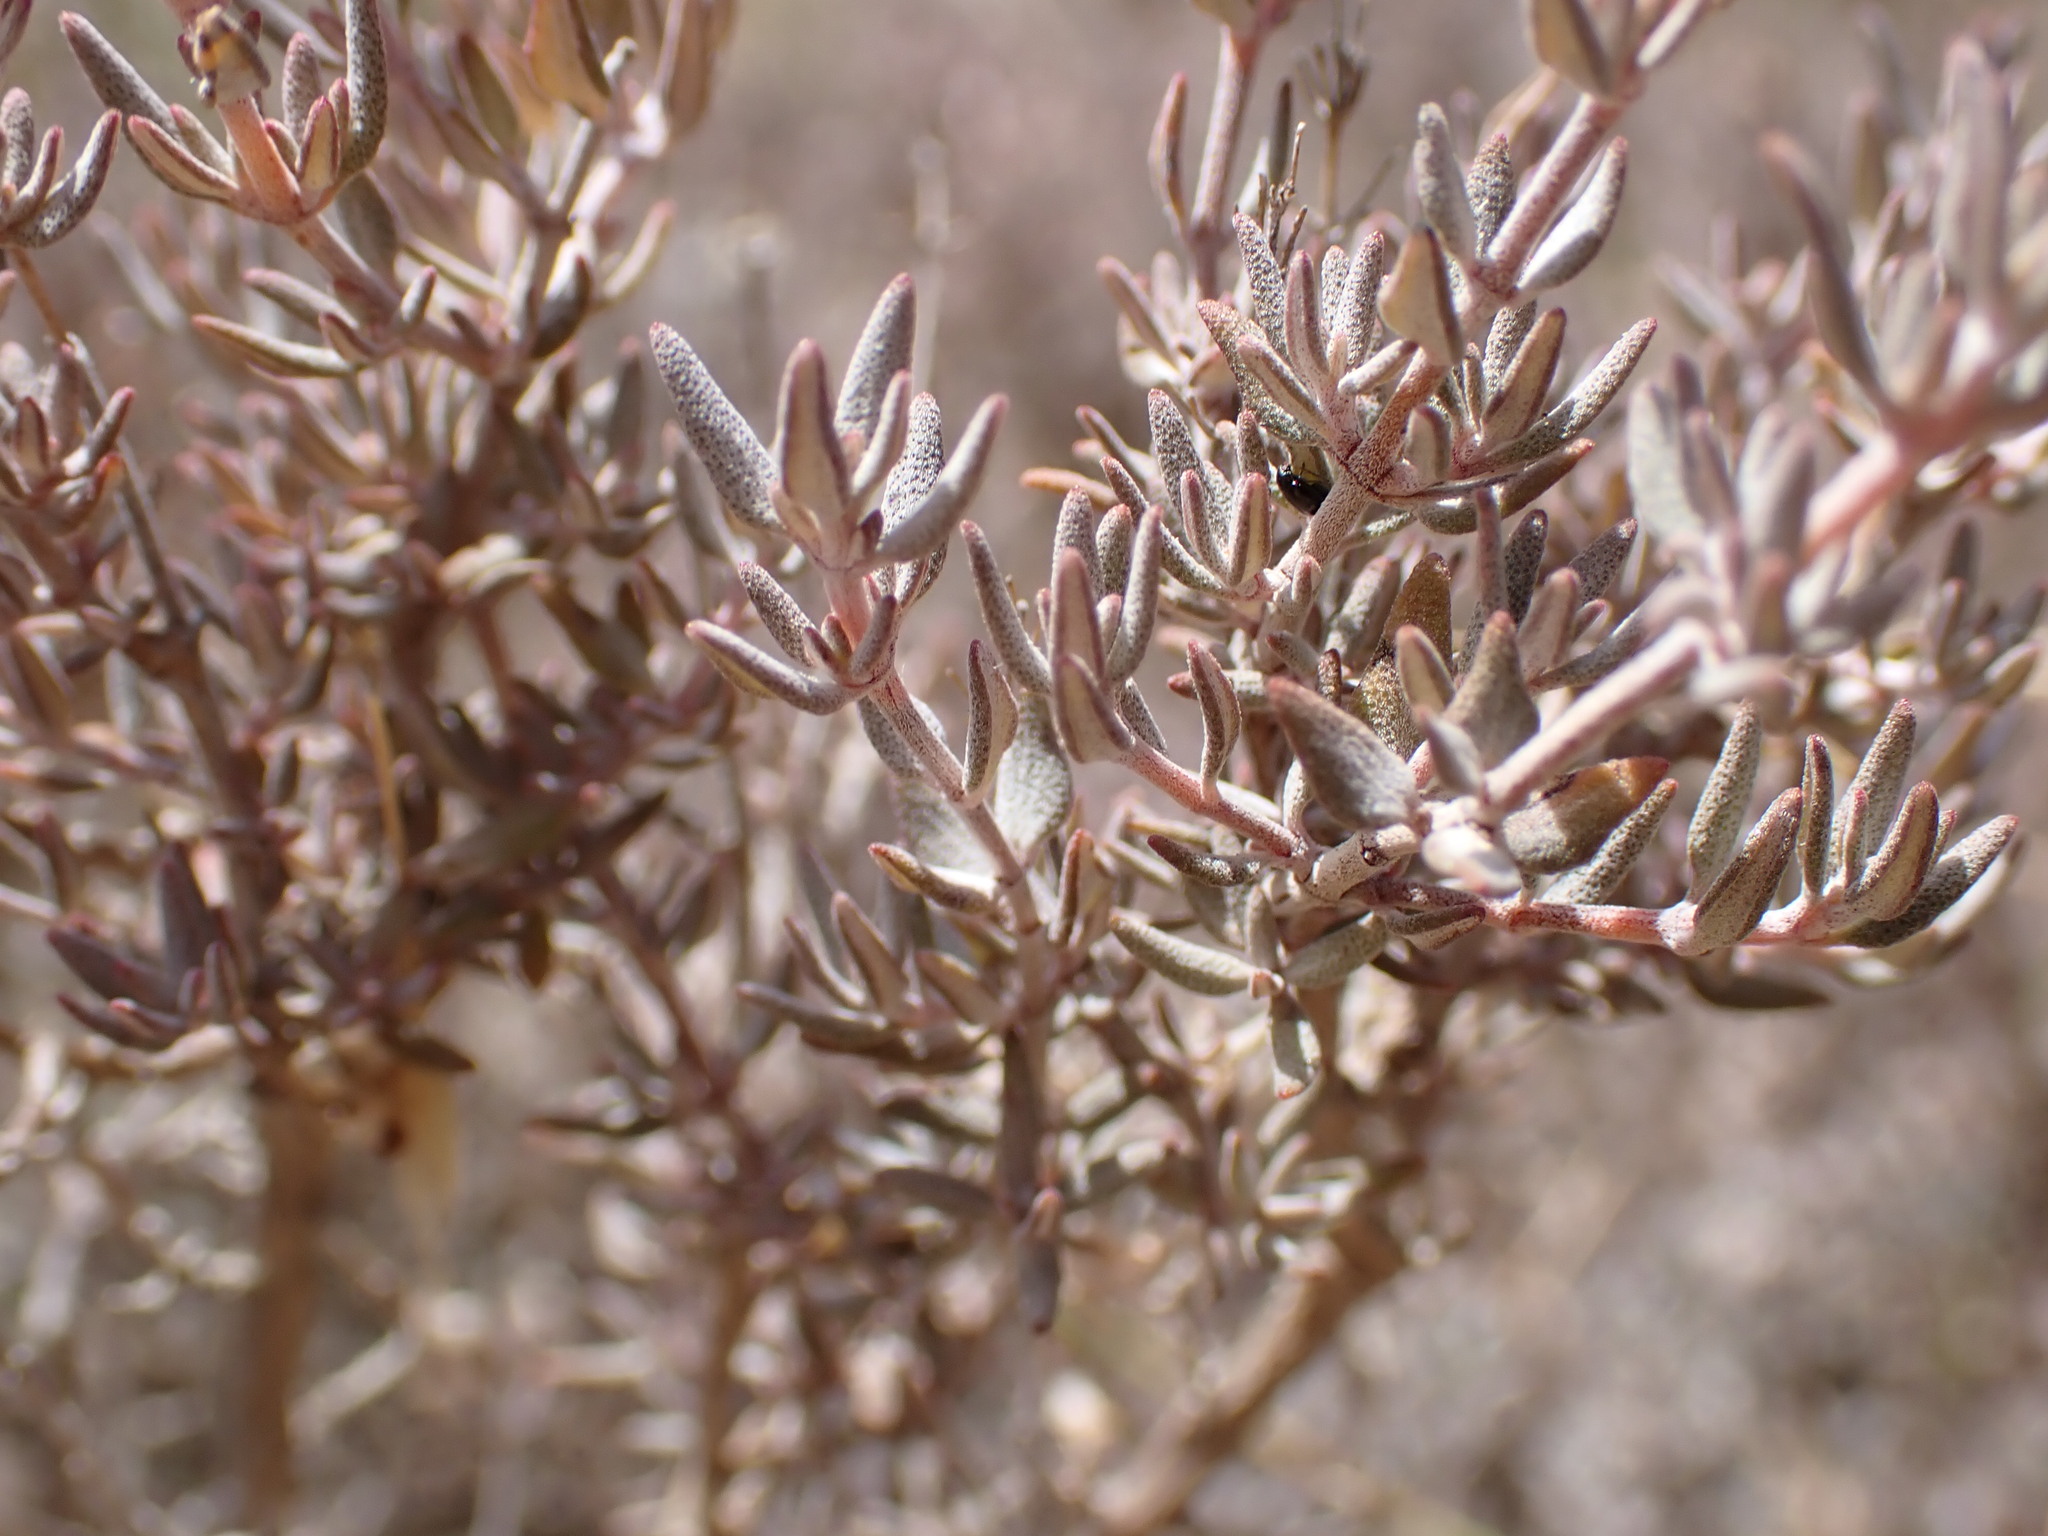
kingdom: Plantae
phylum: Tracheophyta
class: Magnoliopsida
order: Lamiales
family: Lamiaceae
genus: Thymus
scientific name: Thymus vulgaris
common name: Garden thyme
